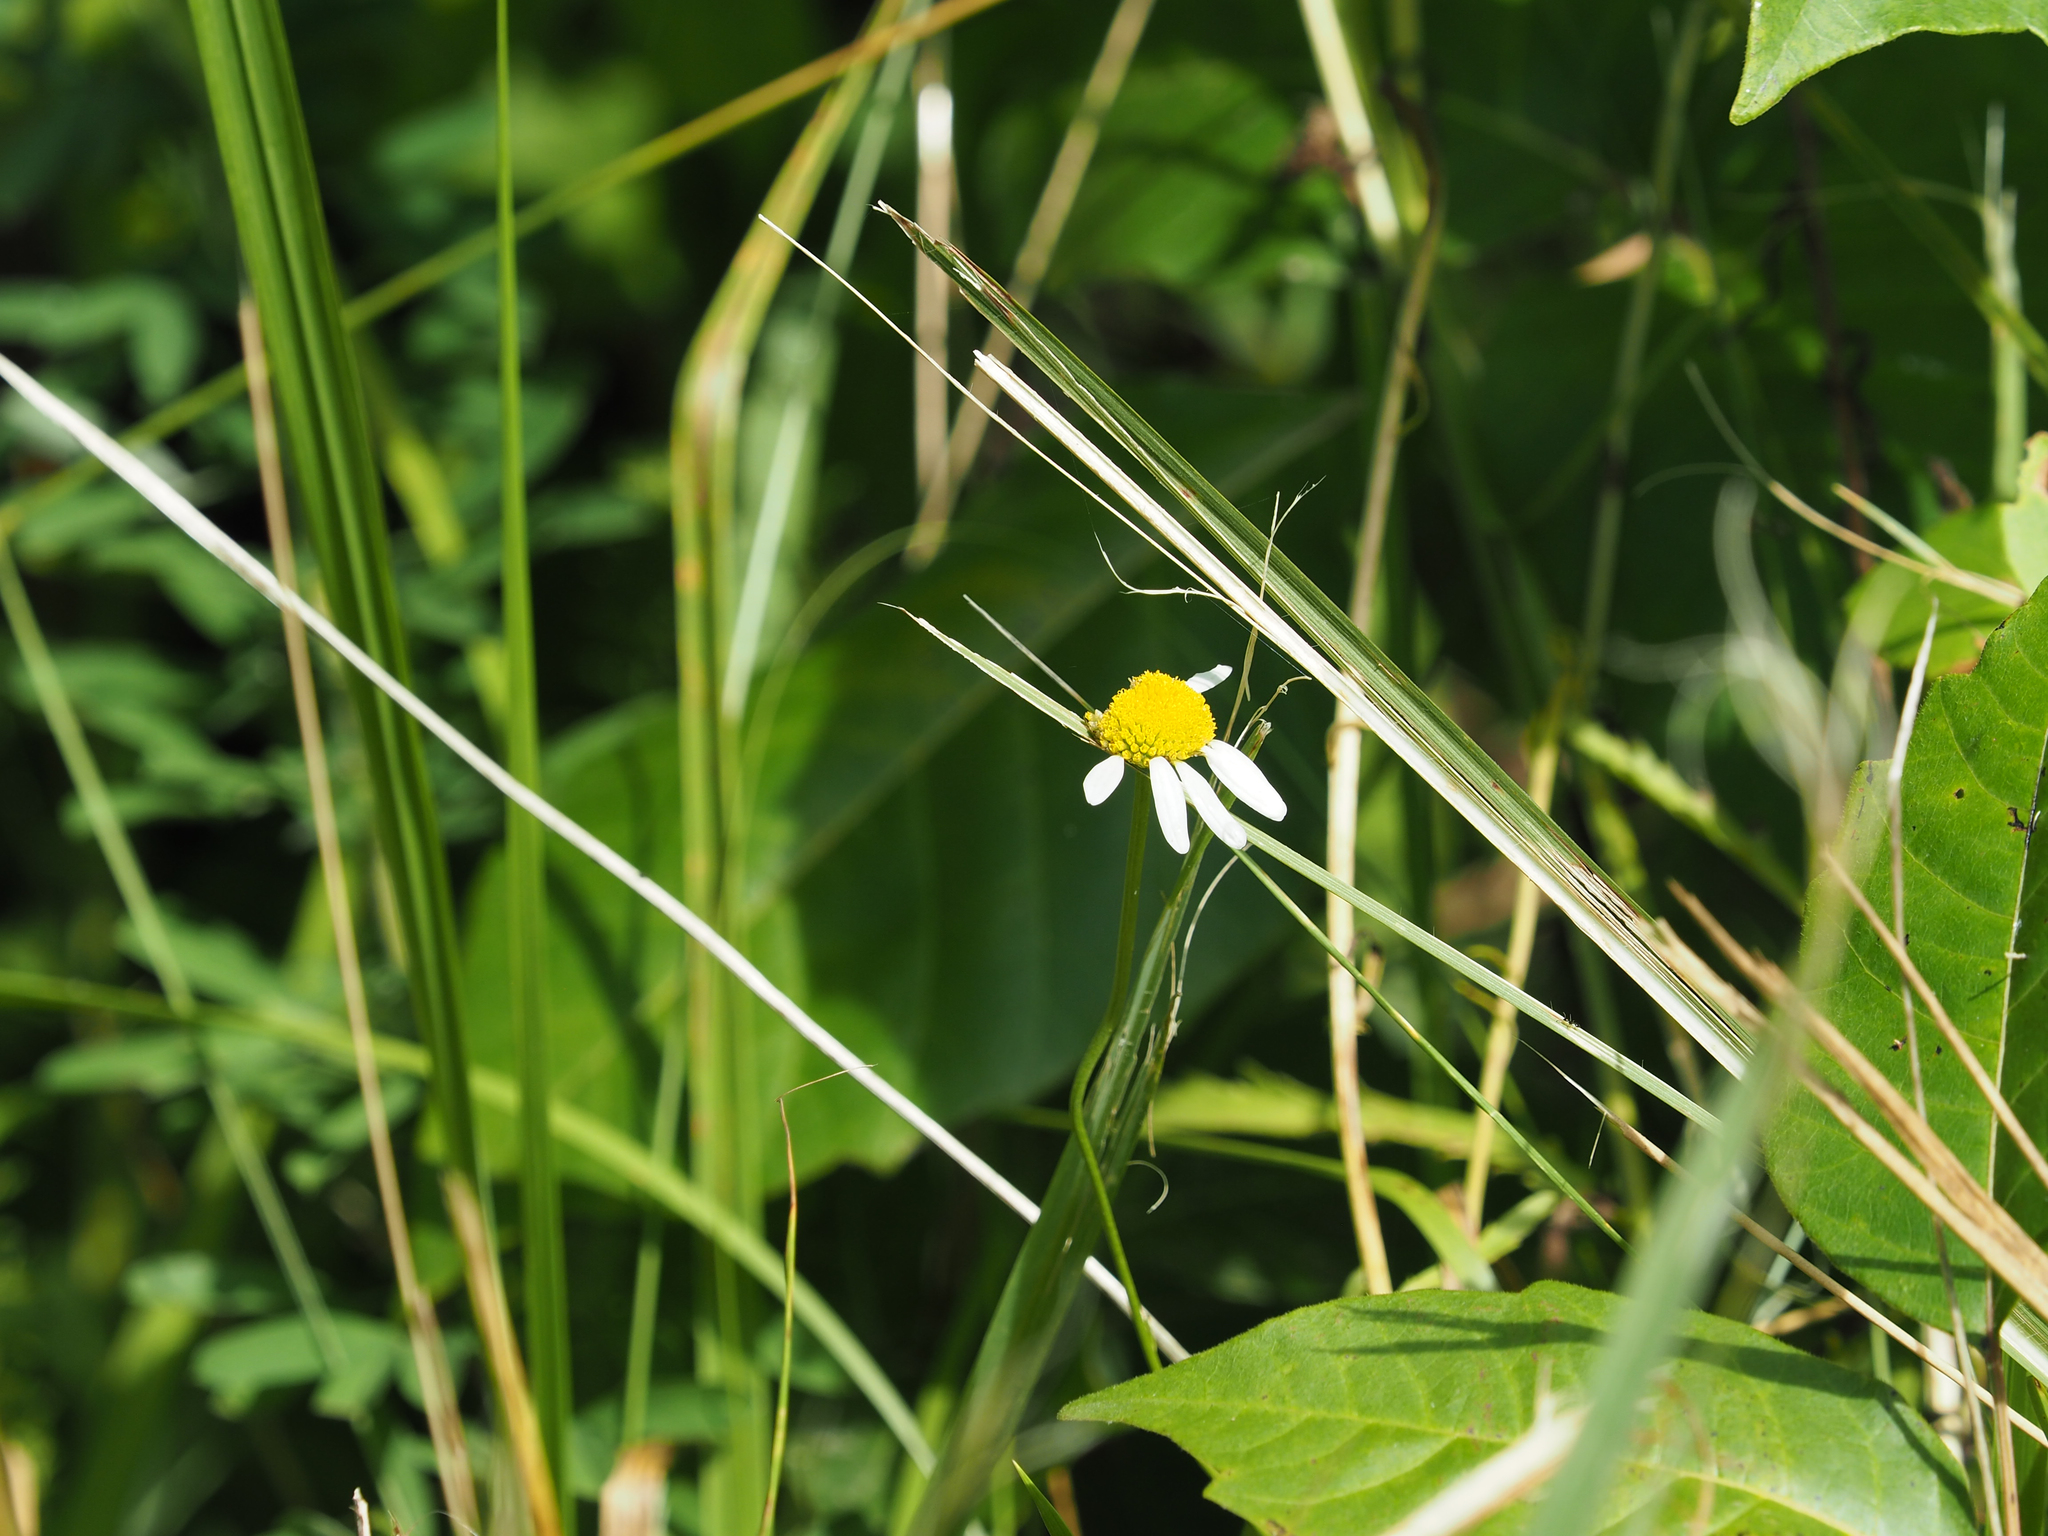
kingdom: Plantae
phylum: Tracheophyta
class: Magnoliopsida
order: Asterales
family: Asteraceae
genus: Leucanthemum
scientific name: Leucanthemum vulgare
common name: Oxeye daisy
